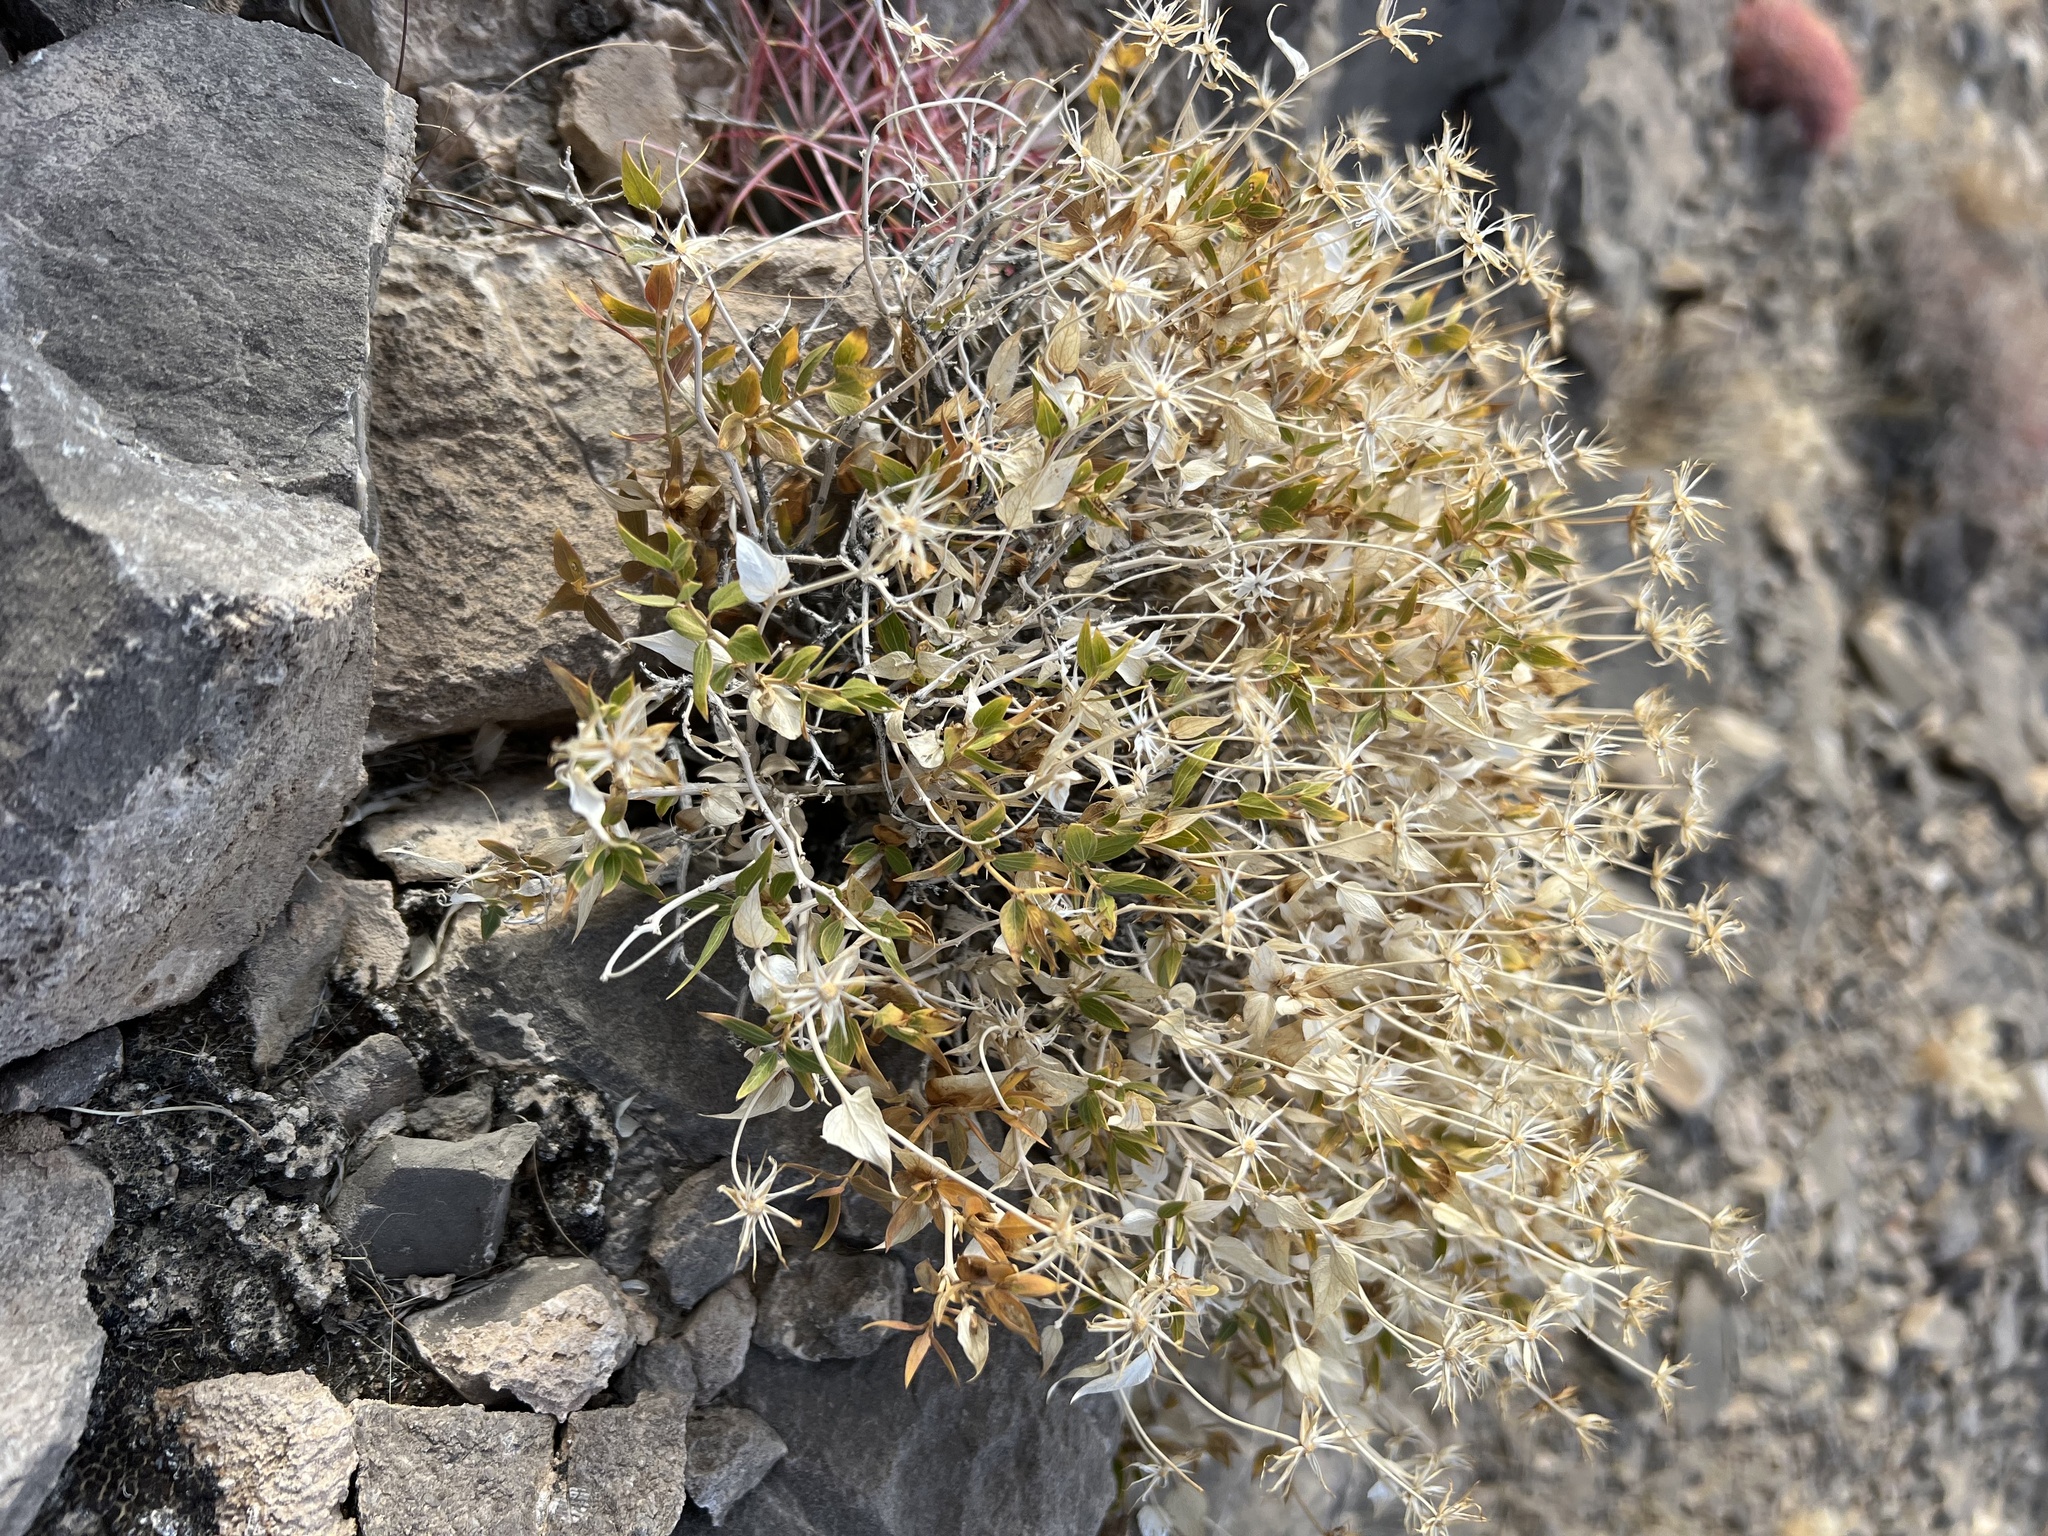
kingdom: Plantae
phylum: Tracheophyta
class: Magnoliopsida
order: Asterales
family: Asteraceae
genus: Brickellia
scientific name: Brickellia atractyloides
